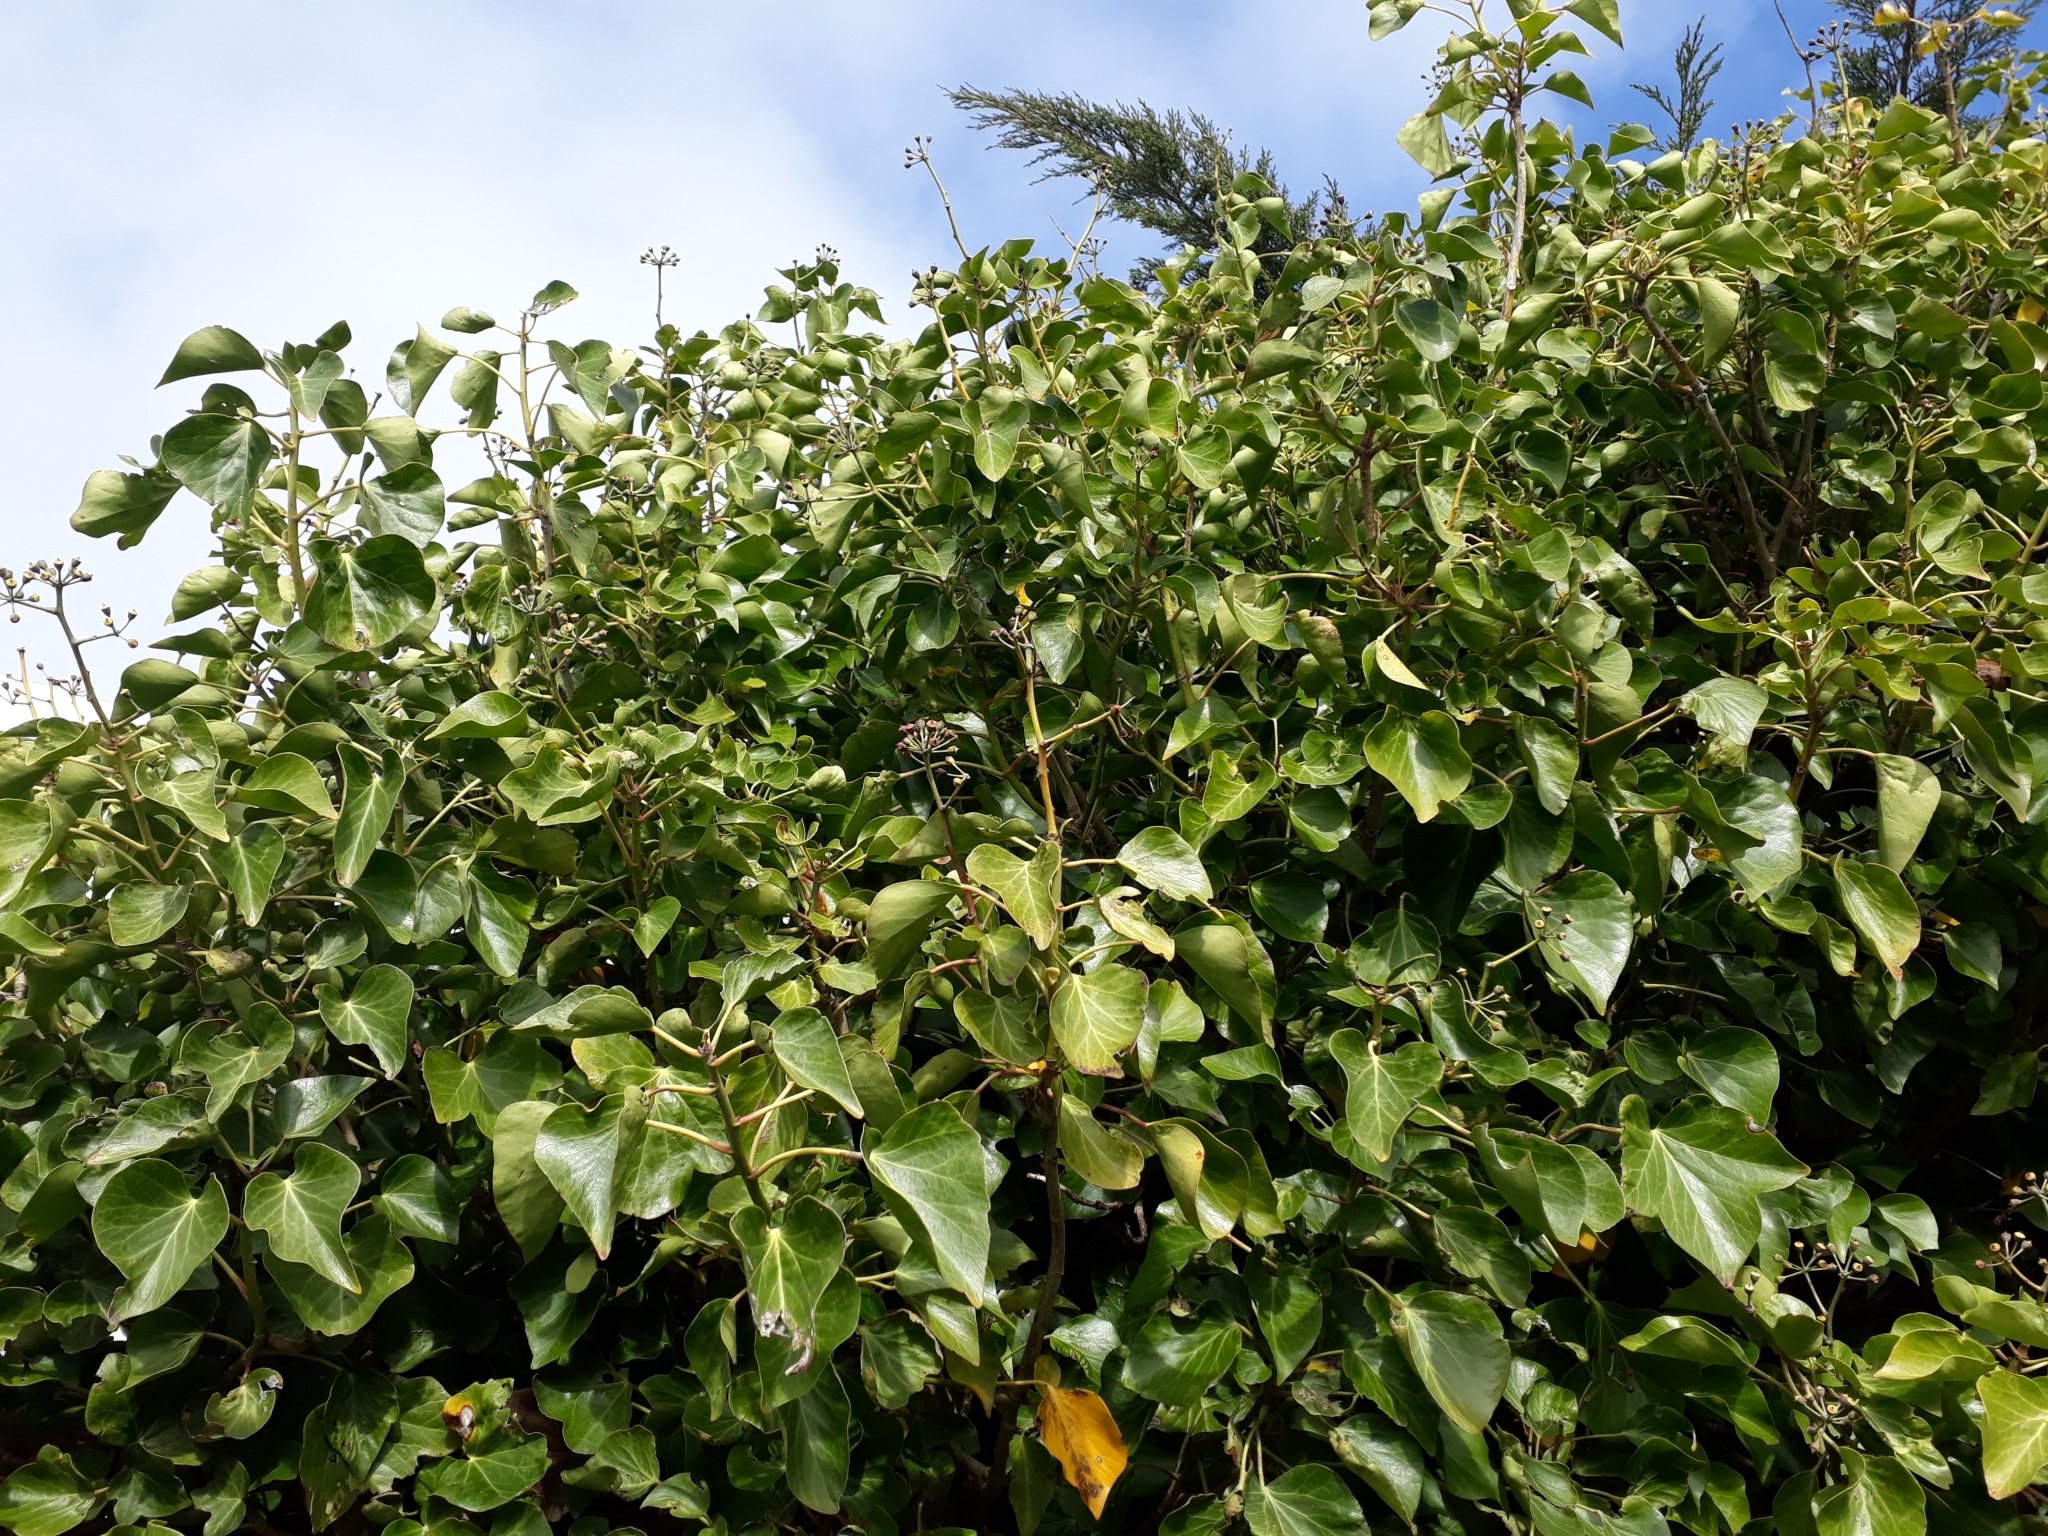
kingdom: Plantae
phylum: Tracheophyta
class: Magnoliopsida
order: Apiales
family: Araliaceae
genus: Hedera
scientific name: Hedera helix
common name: Ivy
